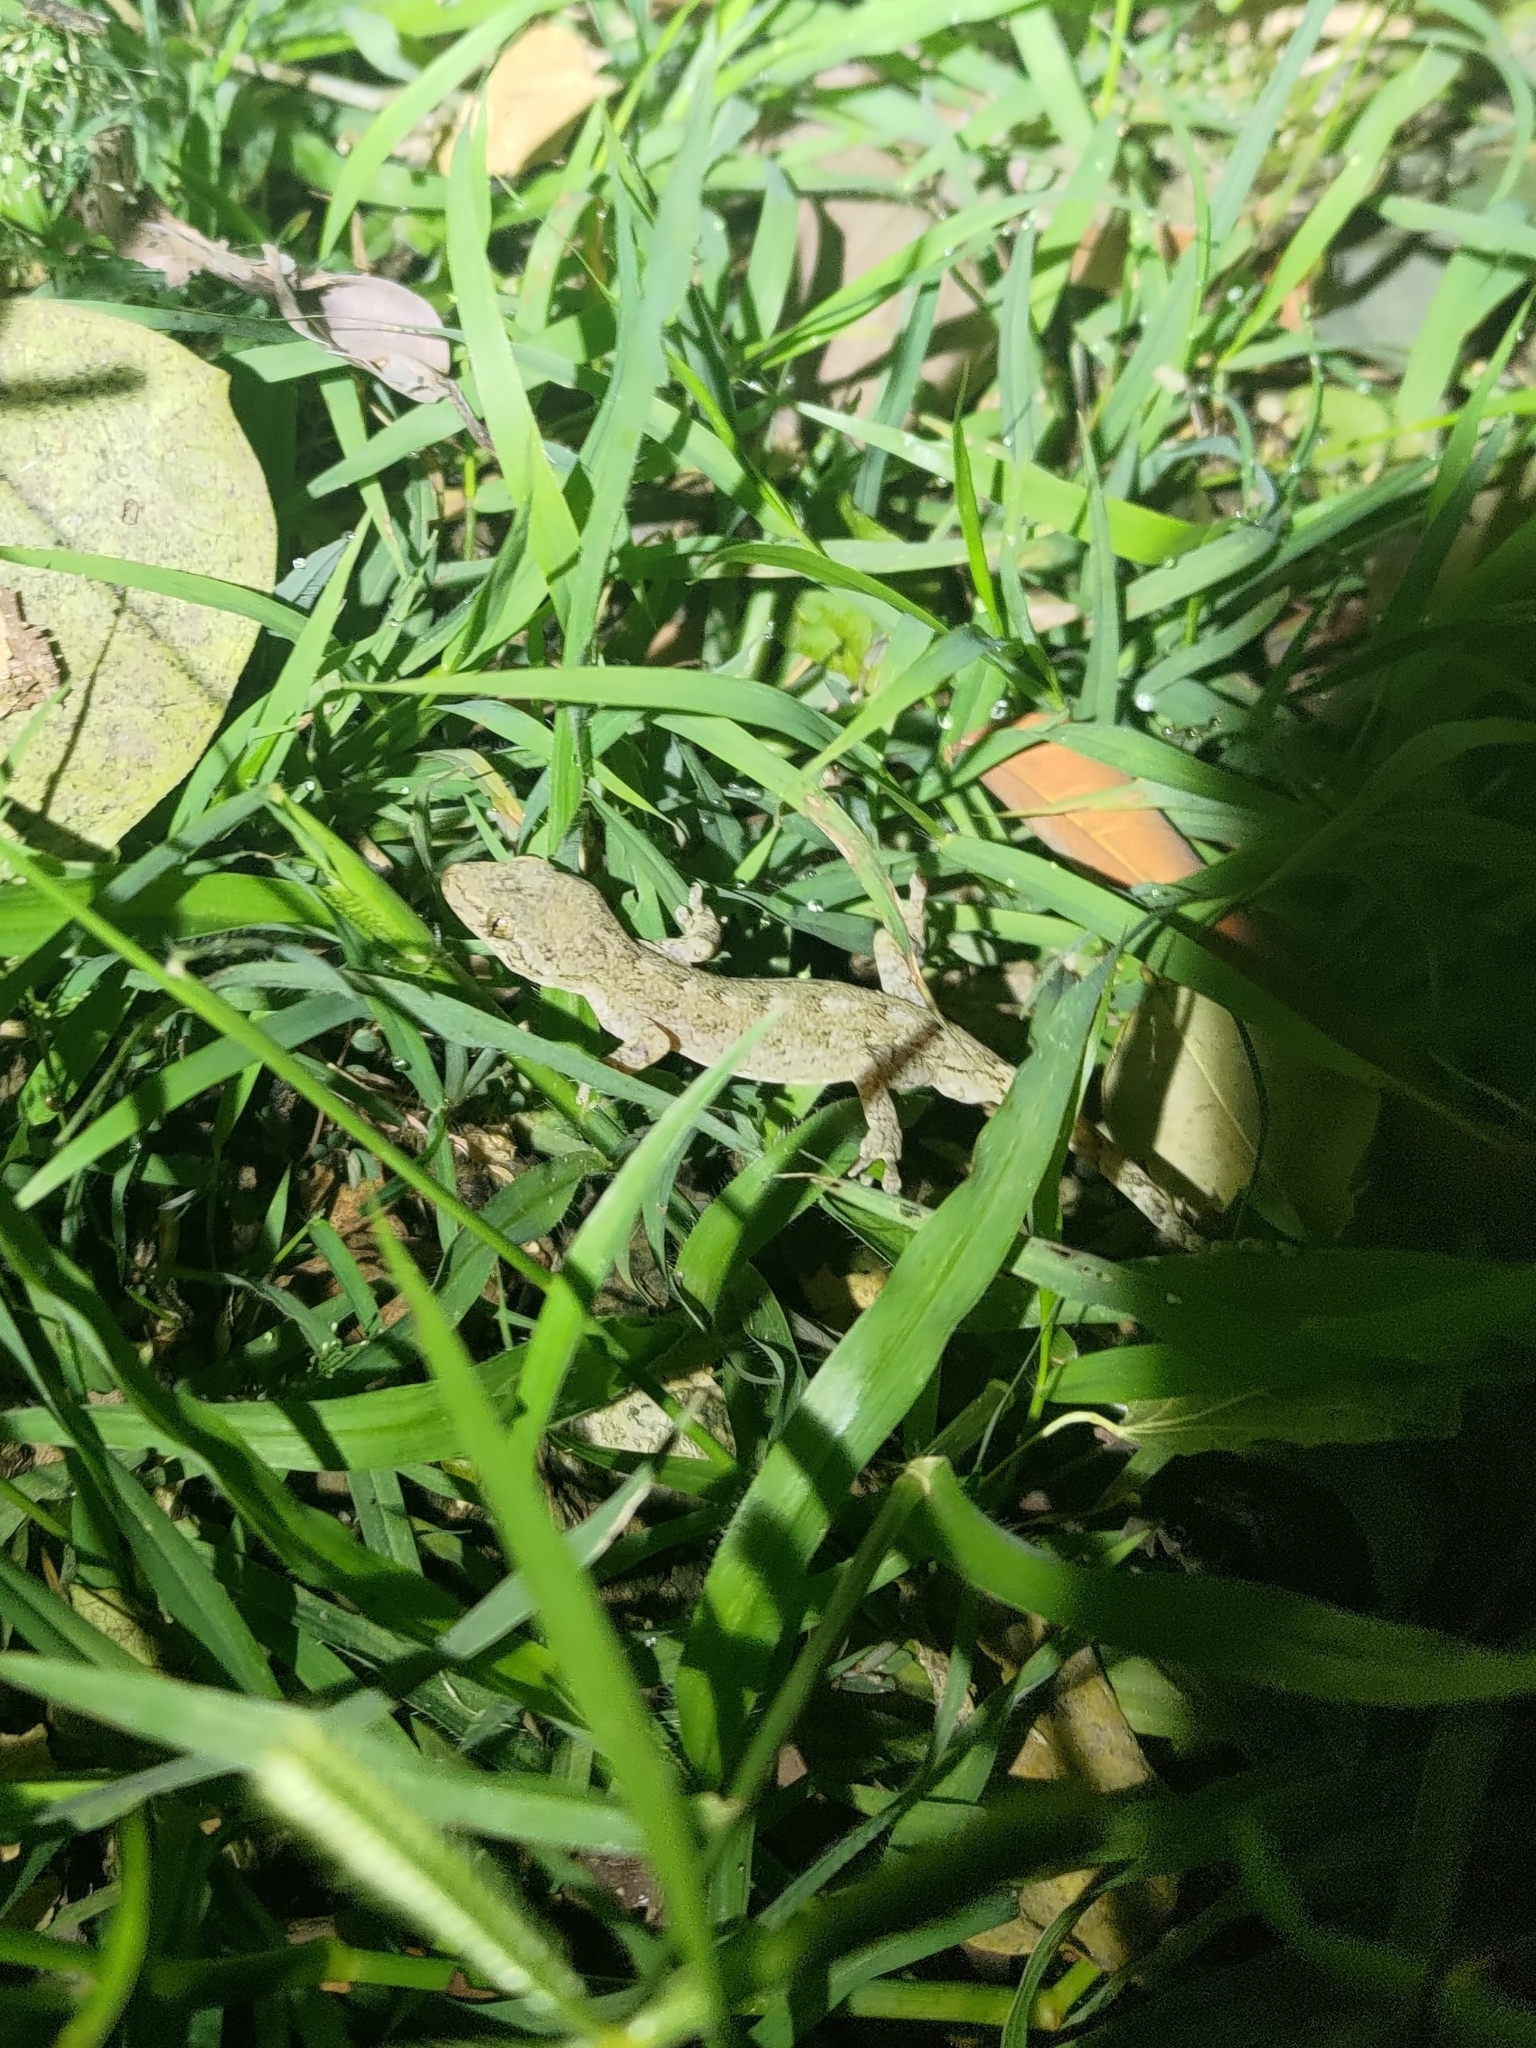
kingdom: Animalia
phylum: Chordata
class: Squamata
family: Gekkonidae
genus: Gekko
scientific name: Gekko hokouensis
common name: Kwangsi gecko
